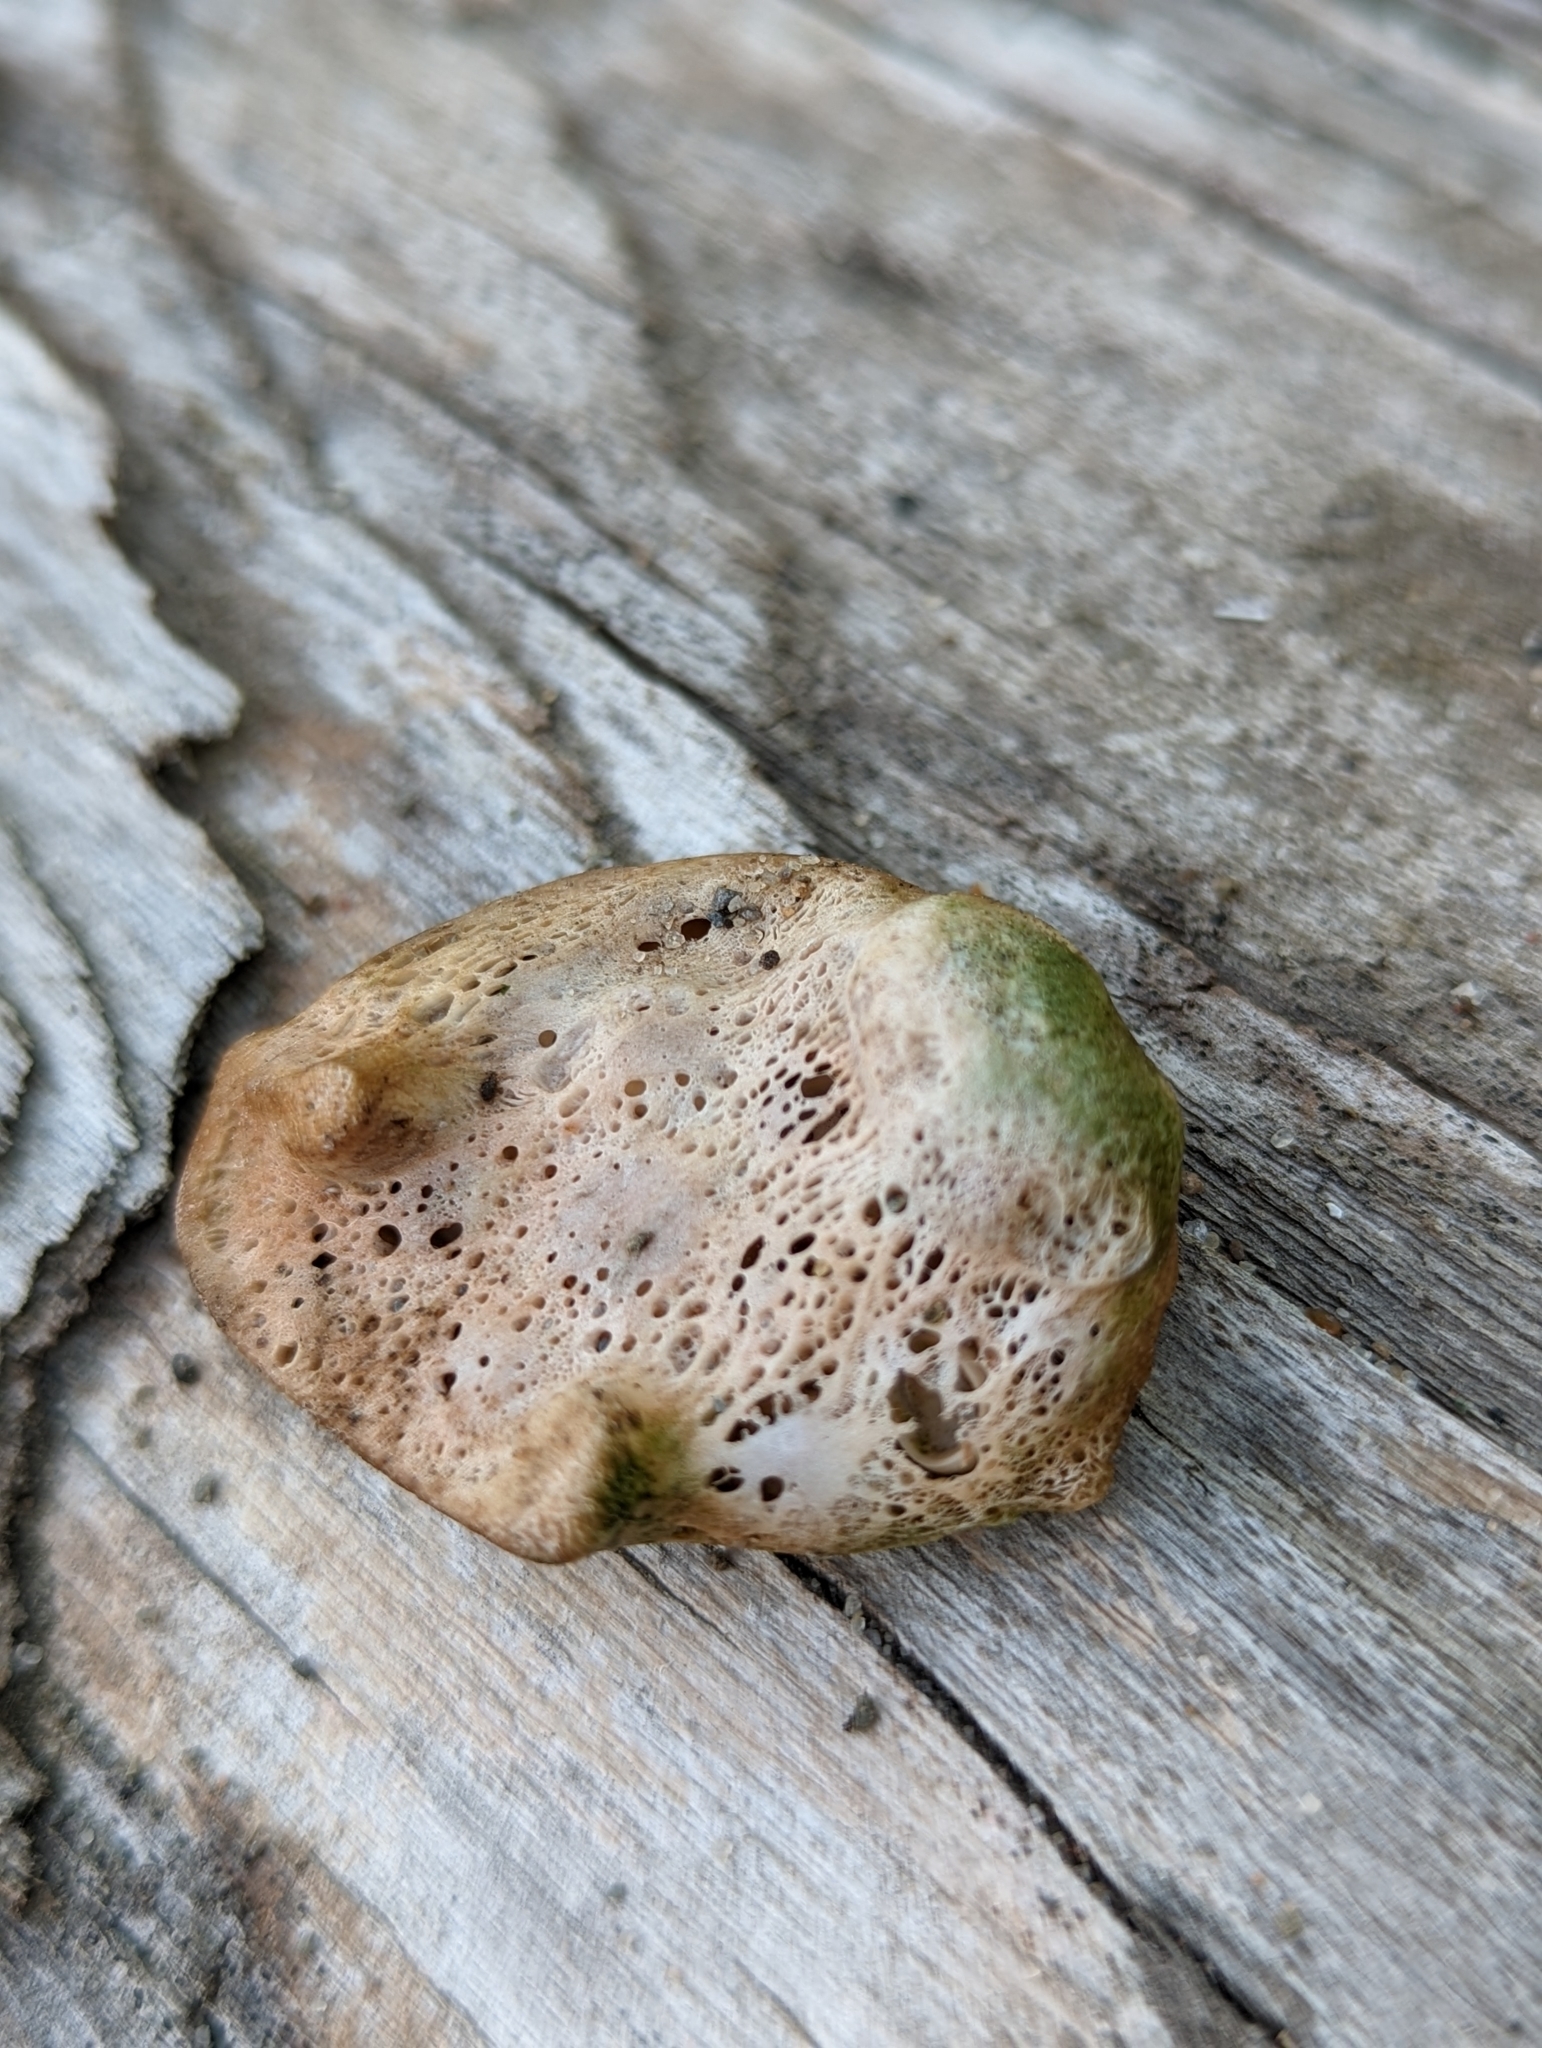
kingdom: Animalia
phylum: Chordata
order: Perciformes
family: Sciaenidae
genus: Aplodinotus
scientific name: Aplodinotus grunniens
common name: Freshwater drum
